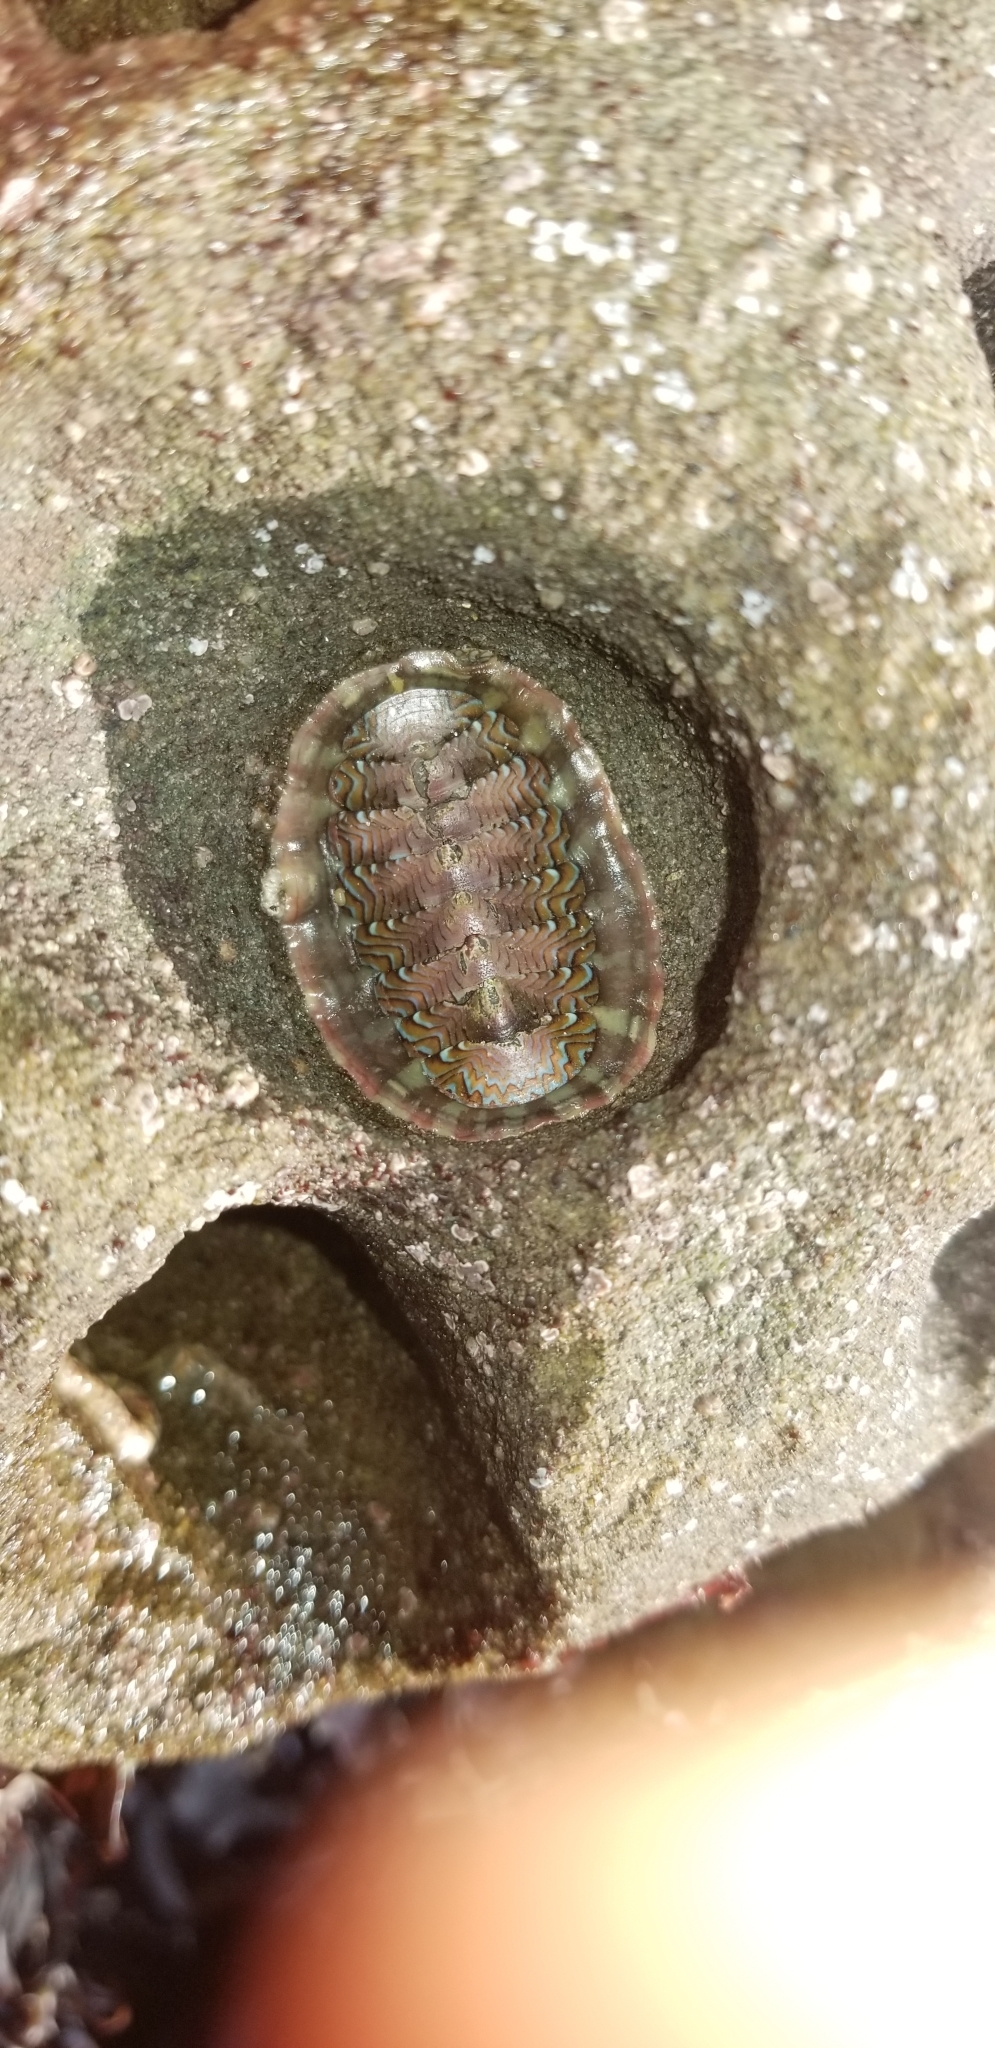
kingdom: Animalia
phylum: Mollusca
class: Polyplacophora
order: Chitonida
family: Tonicellidae
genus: Tonicella
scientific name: Tonicella lokii
